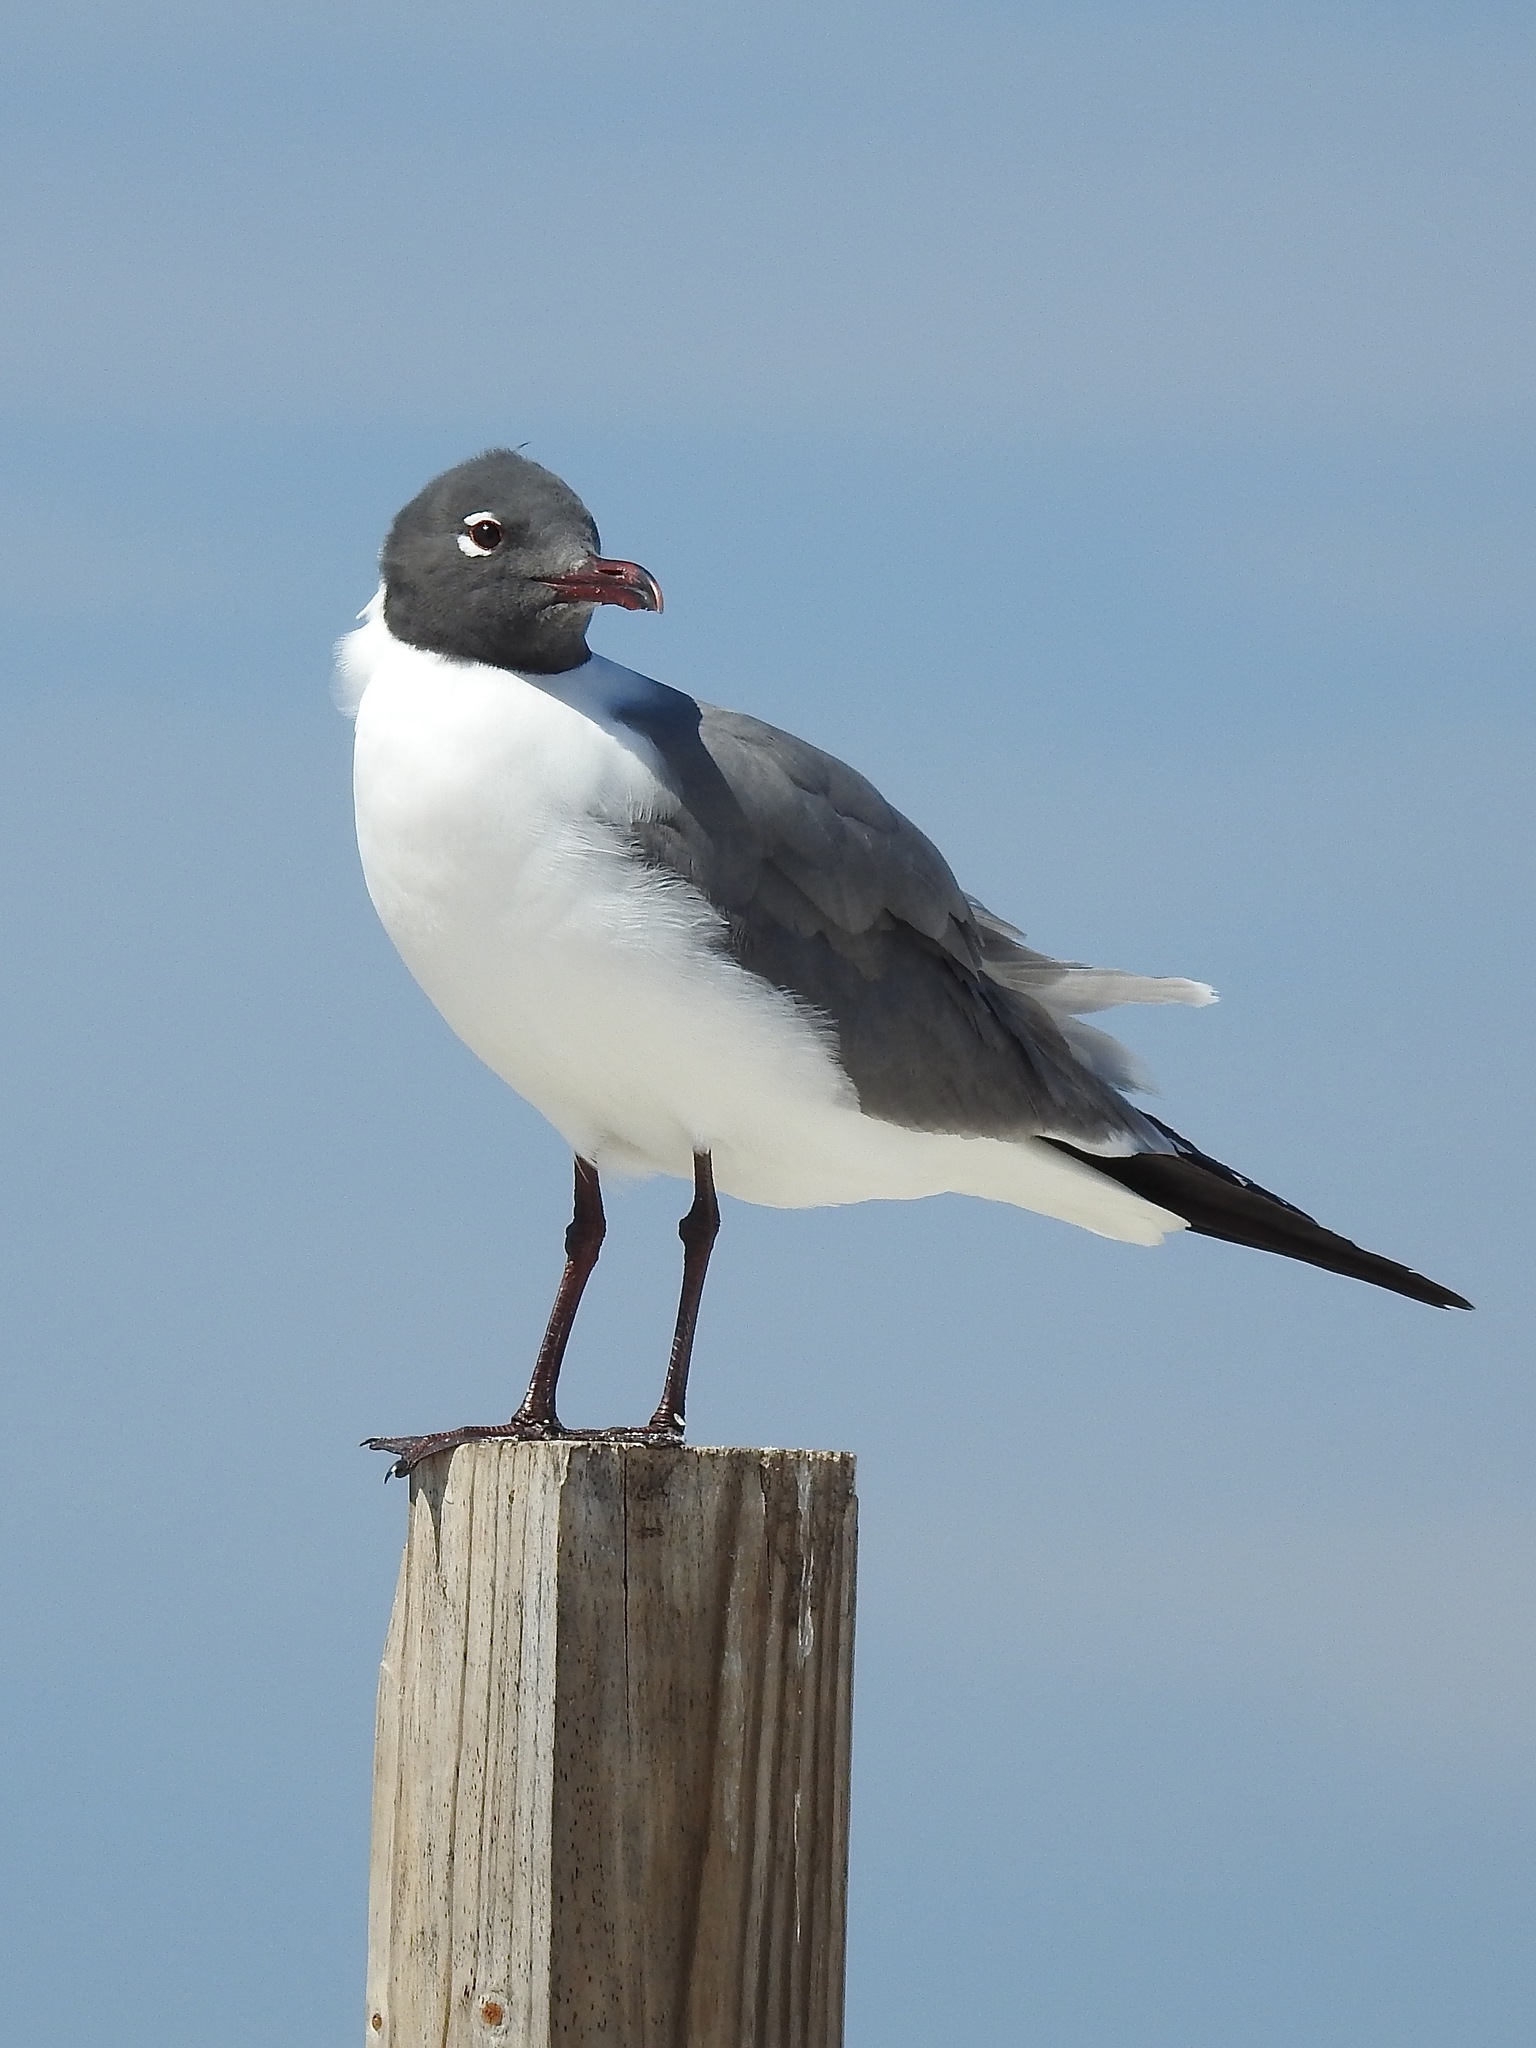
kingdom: Animalia
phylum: Chordata
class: Aves
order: Charadriiformes
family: Laridae
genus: Leucophaeus
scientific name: Leucophaeus atricilla
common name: Laughing gull
